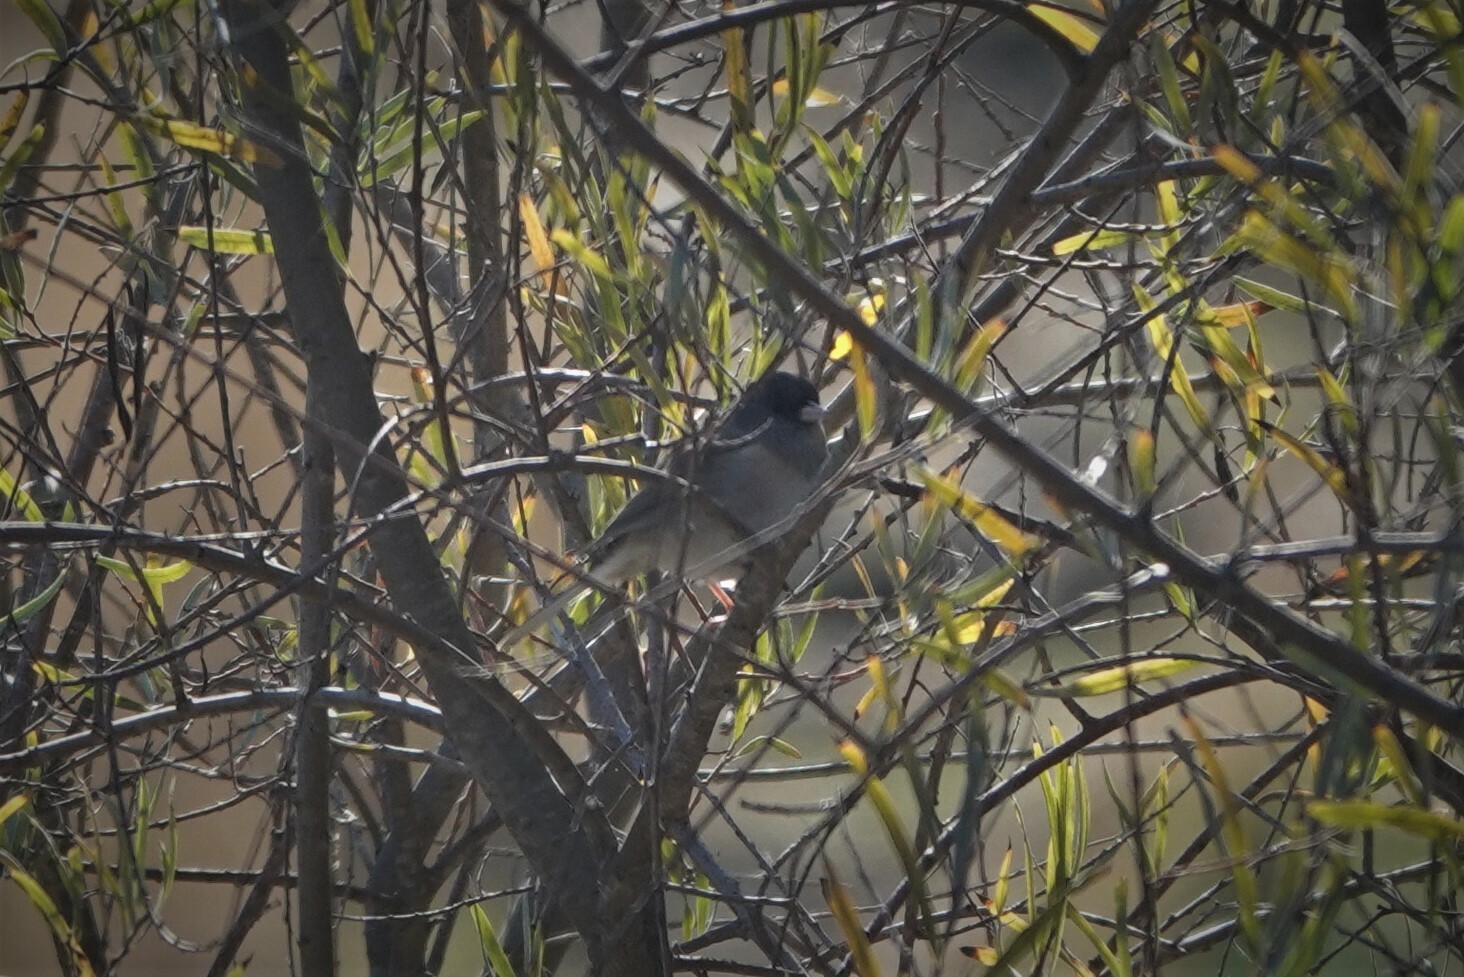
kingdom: Animalia
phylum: Chordata
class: Aves
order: Passeriformes
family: Passerellidae
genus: Junco
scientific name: Junco hyemalis
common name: Dark-eyed junco
